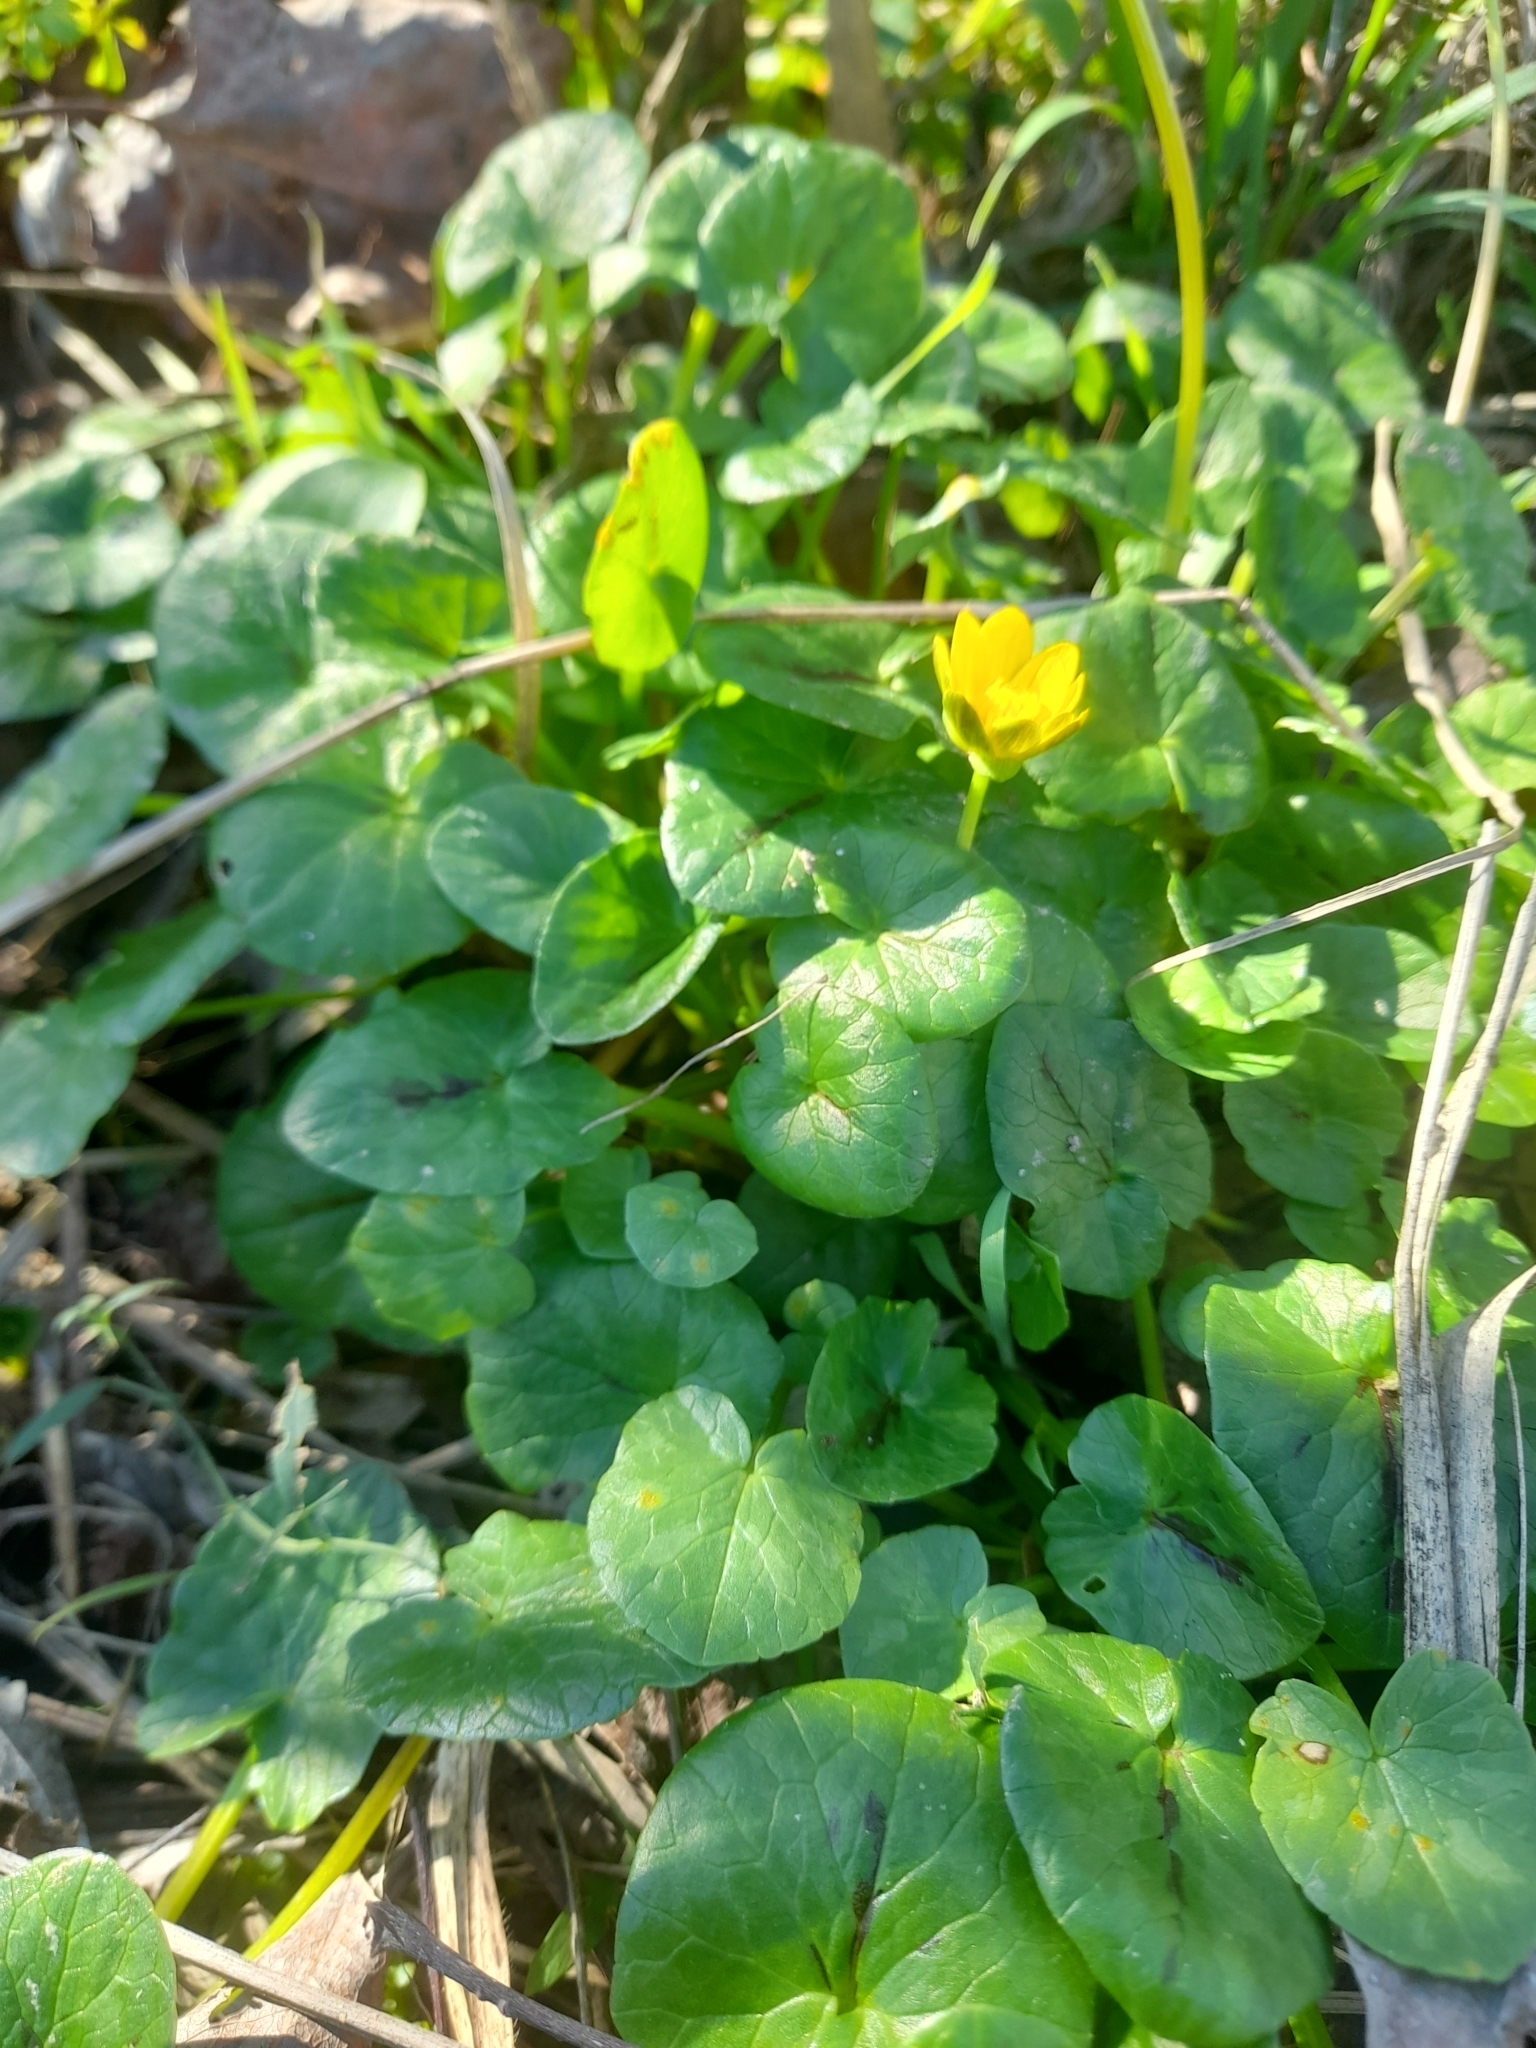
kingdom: Plantae
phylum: Tracheophyta
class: Magnoliopsida
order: Ranunculales
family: Ranunculaceae
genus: Ficaria
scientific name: Ficaria verna
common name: Lesser celandine
